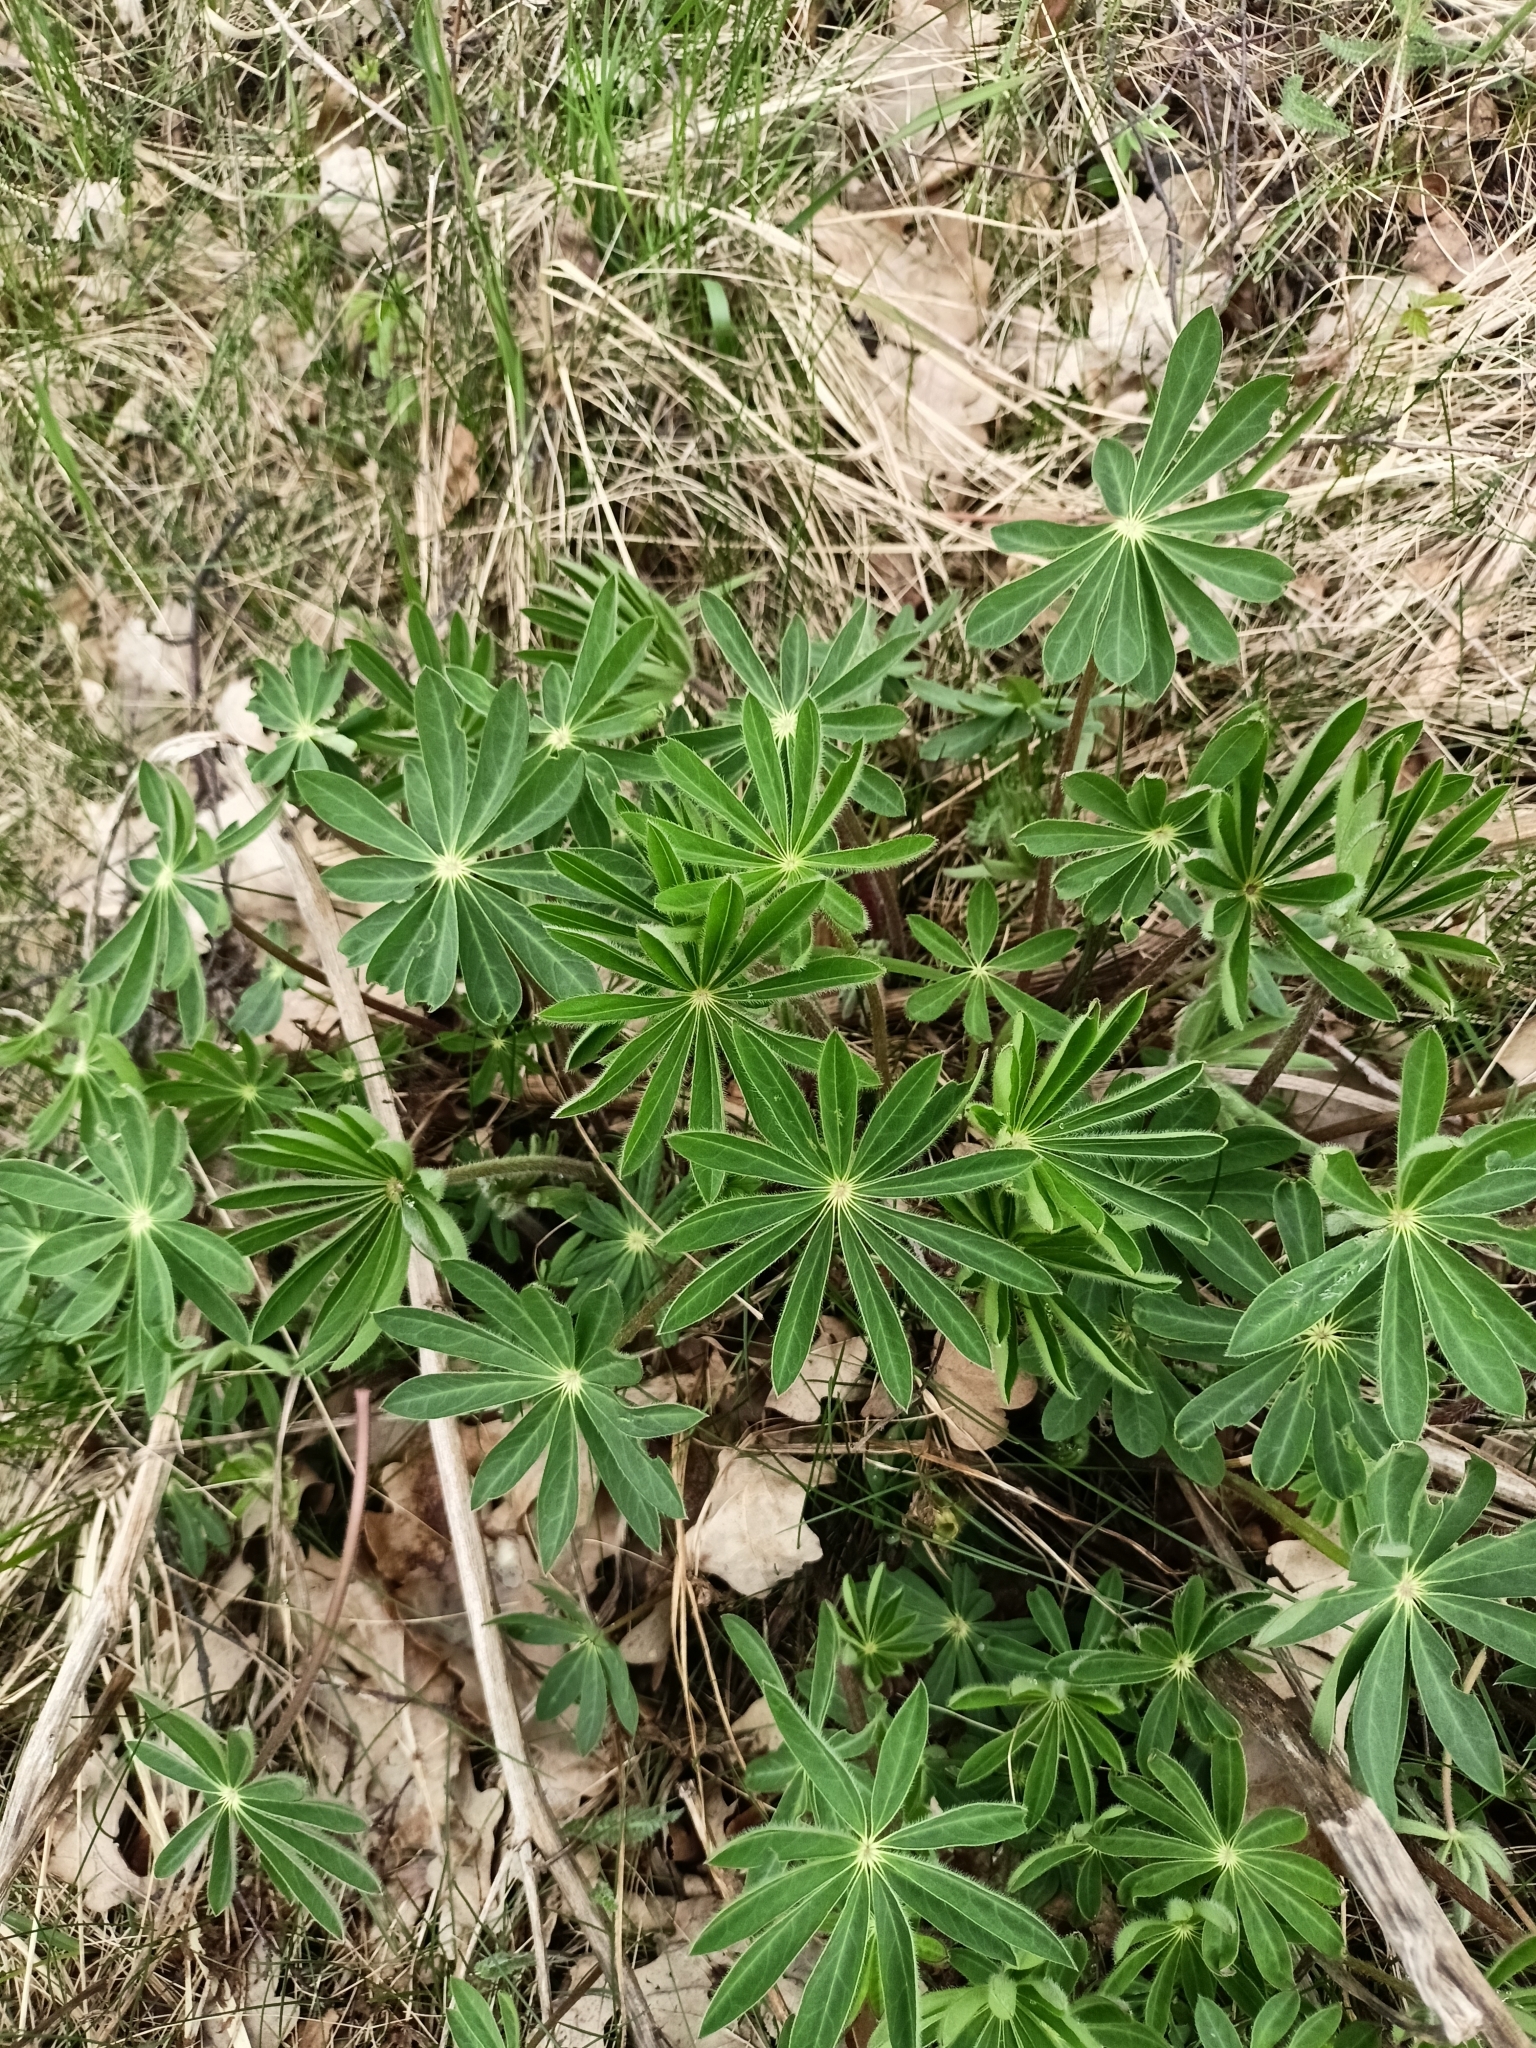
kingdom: Plantae
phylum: Tracheophyta
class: Magnoliopsida
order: Fabales
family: Fabaceae
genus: Lupinus
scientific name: Lupinus polyphyllus
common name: Garden lupin
